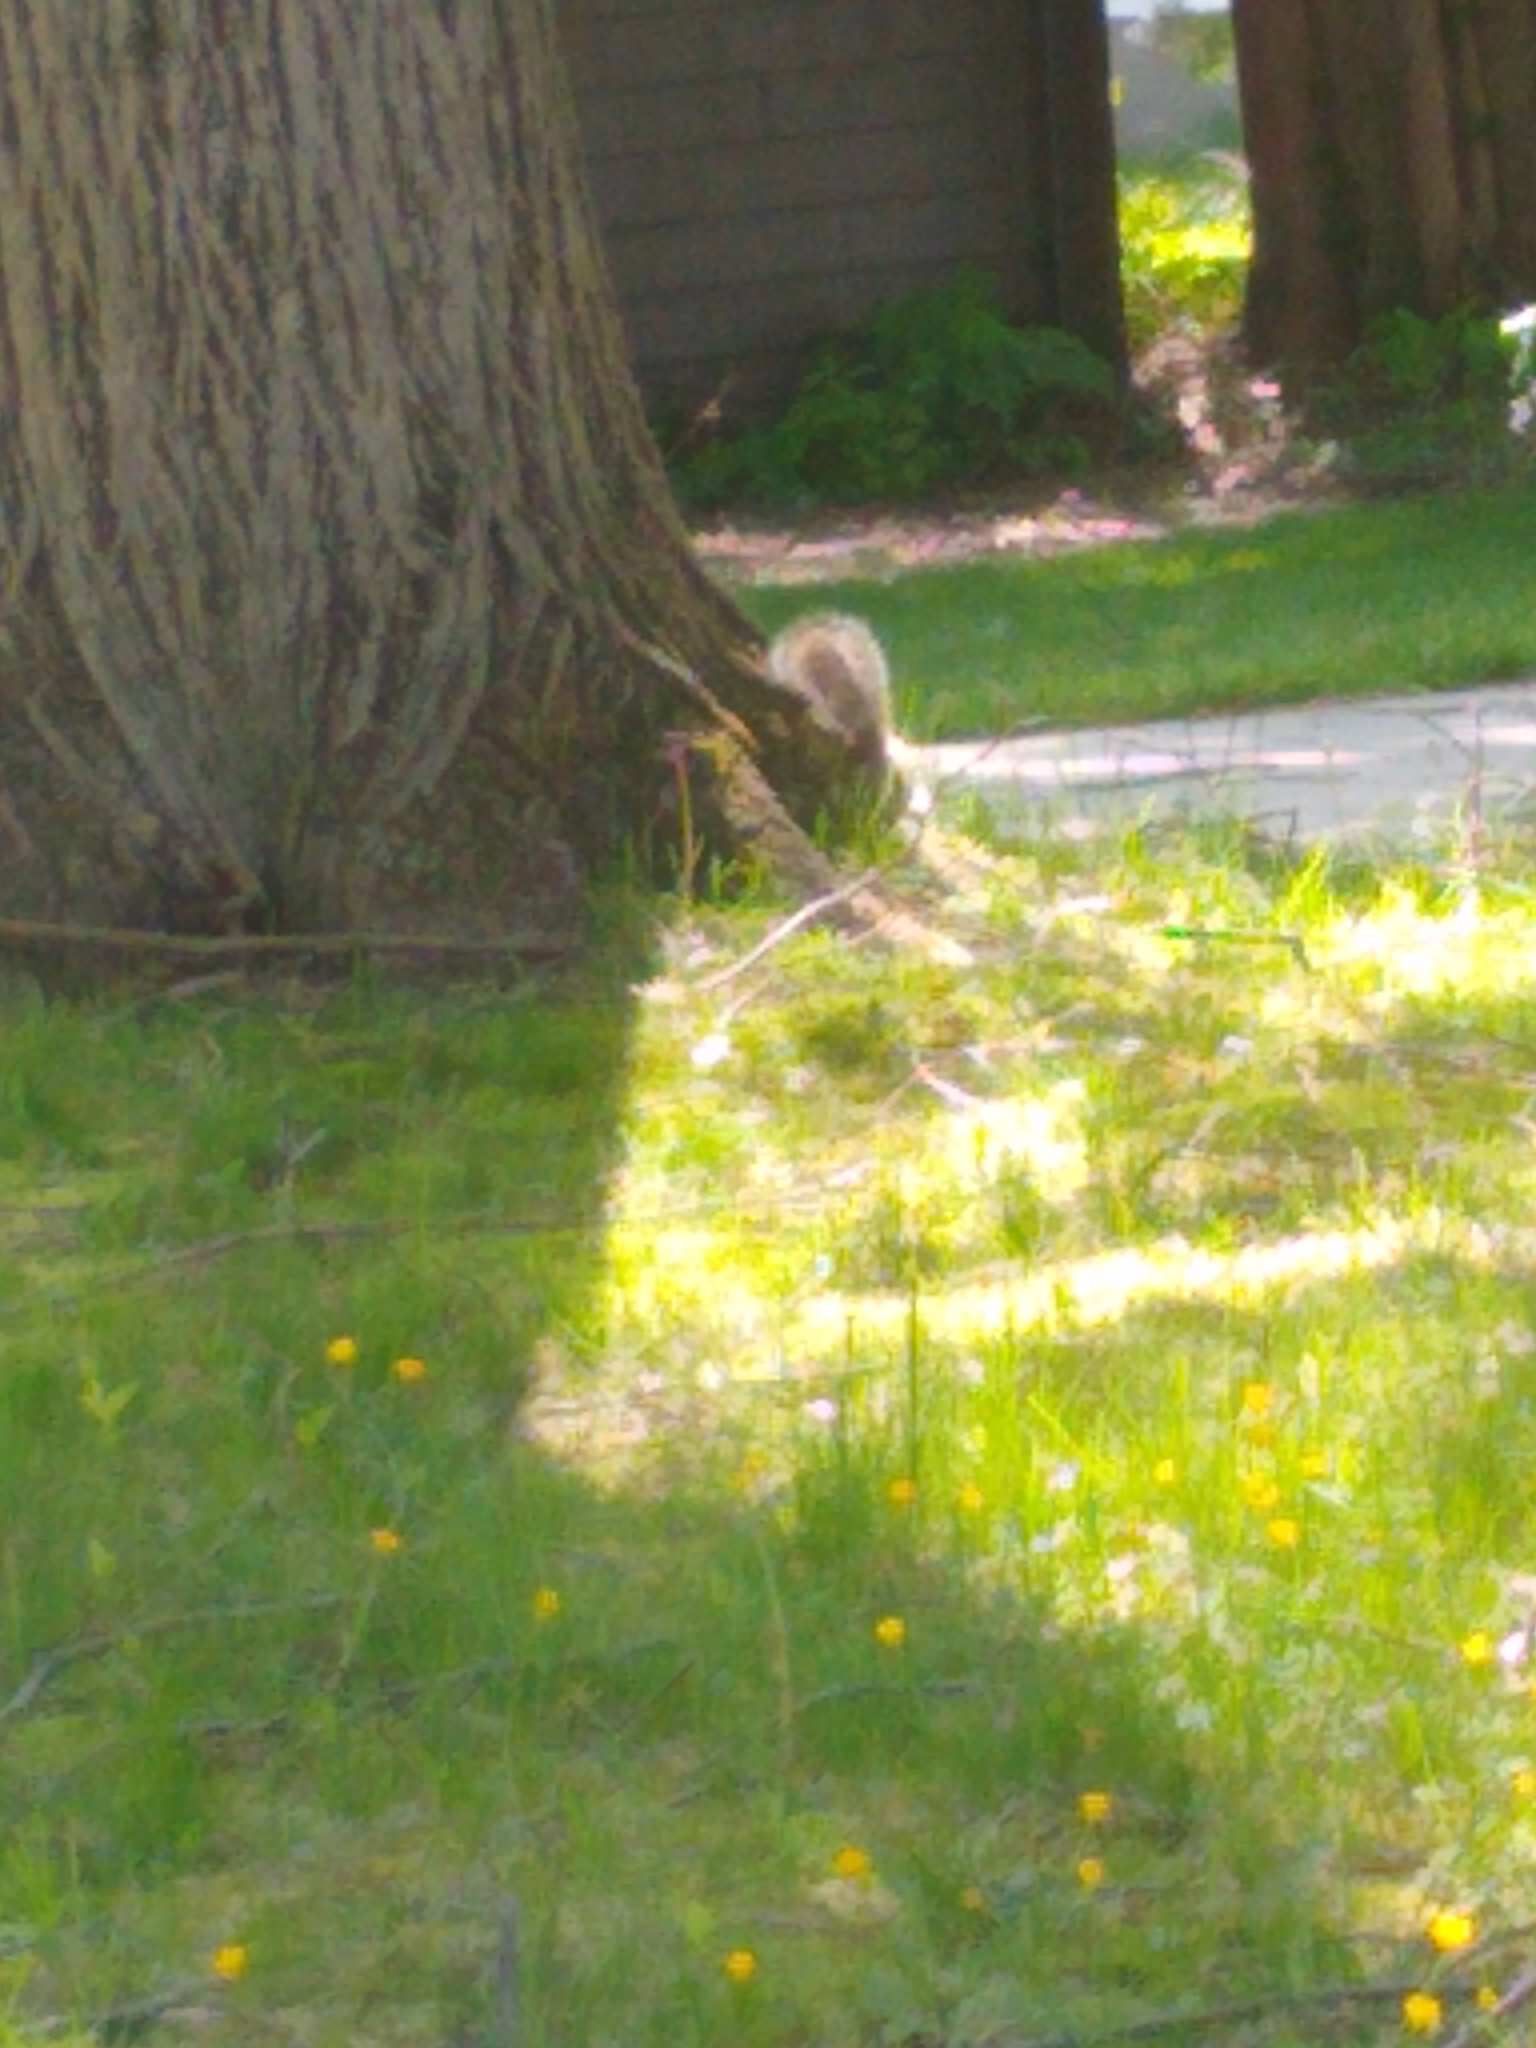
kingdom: Animalia
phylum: Chordata
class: Mammalia
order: Rodentia
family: Sciuridae
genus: Sciurus
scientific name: Sciurus carolinensis
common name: Eastern gray squirrel
